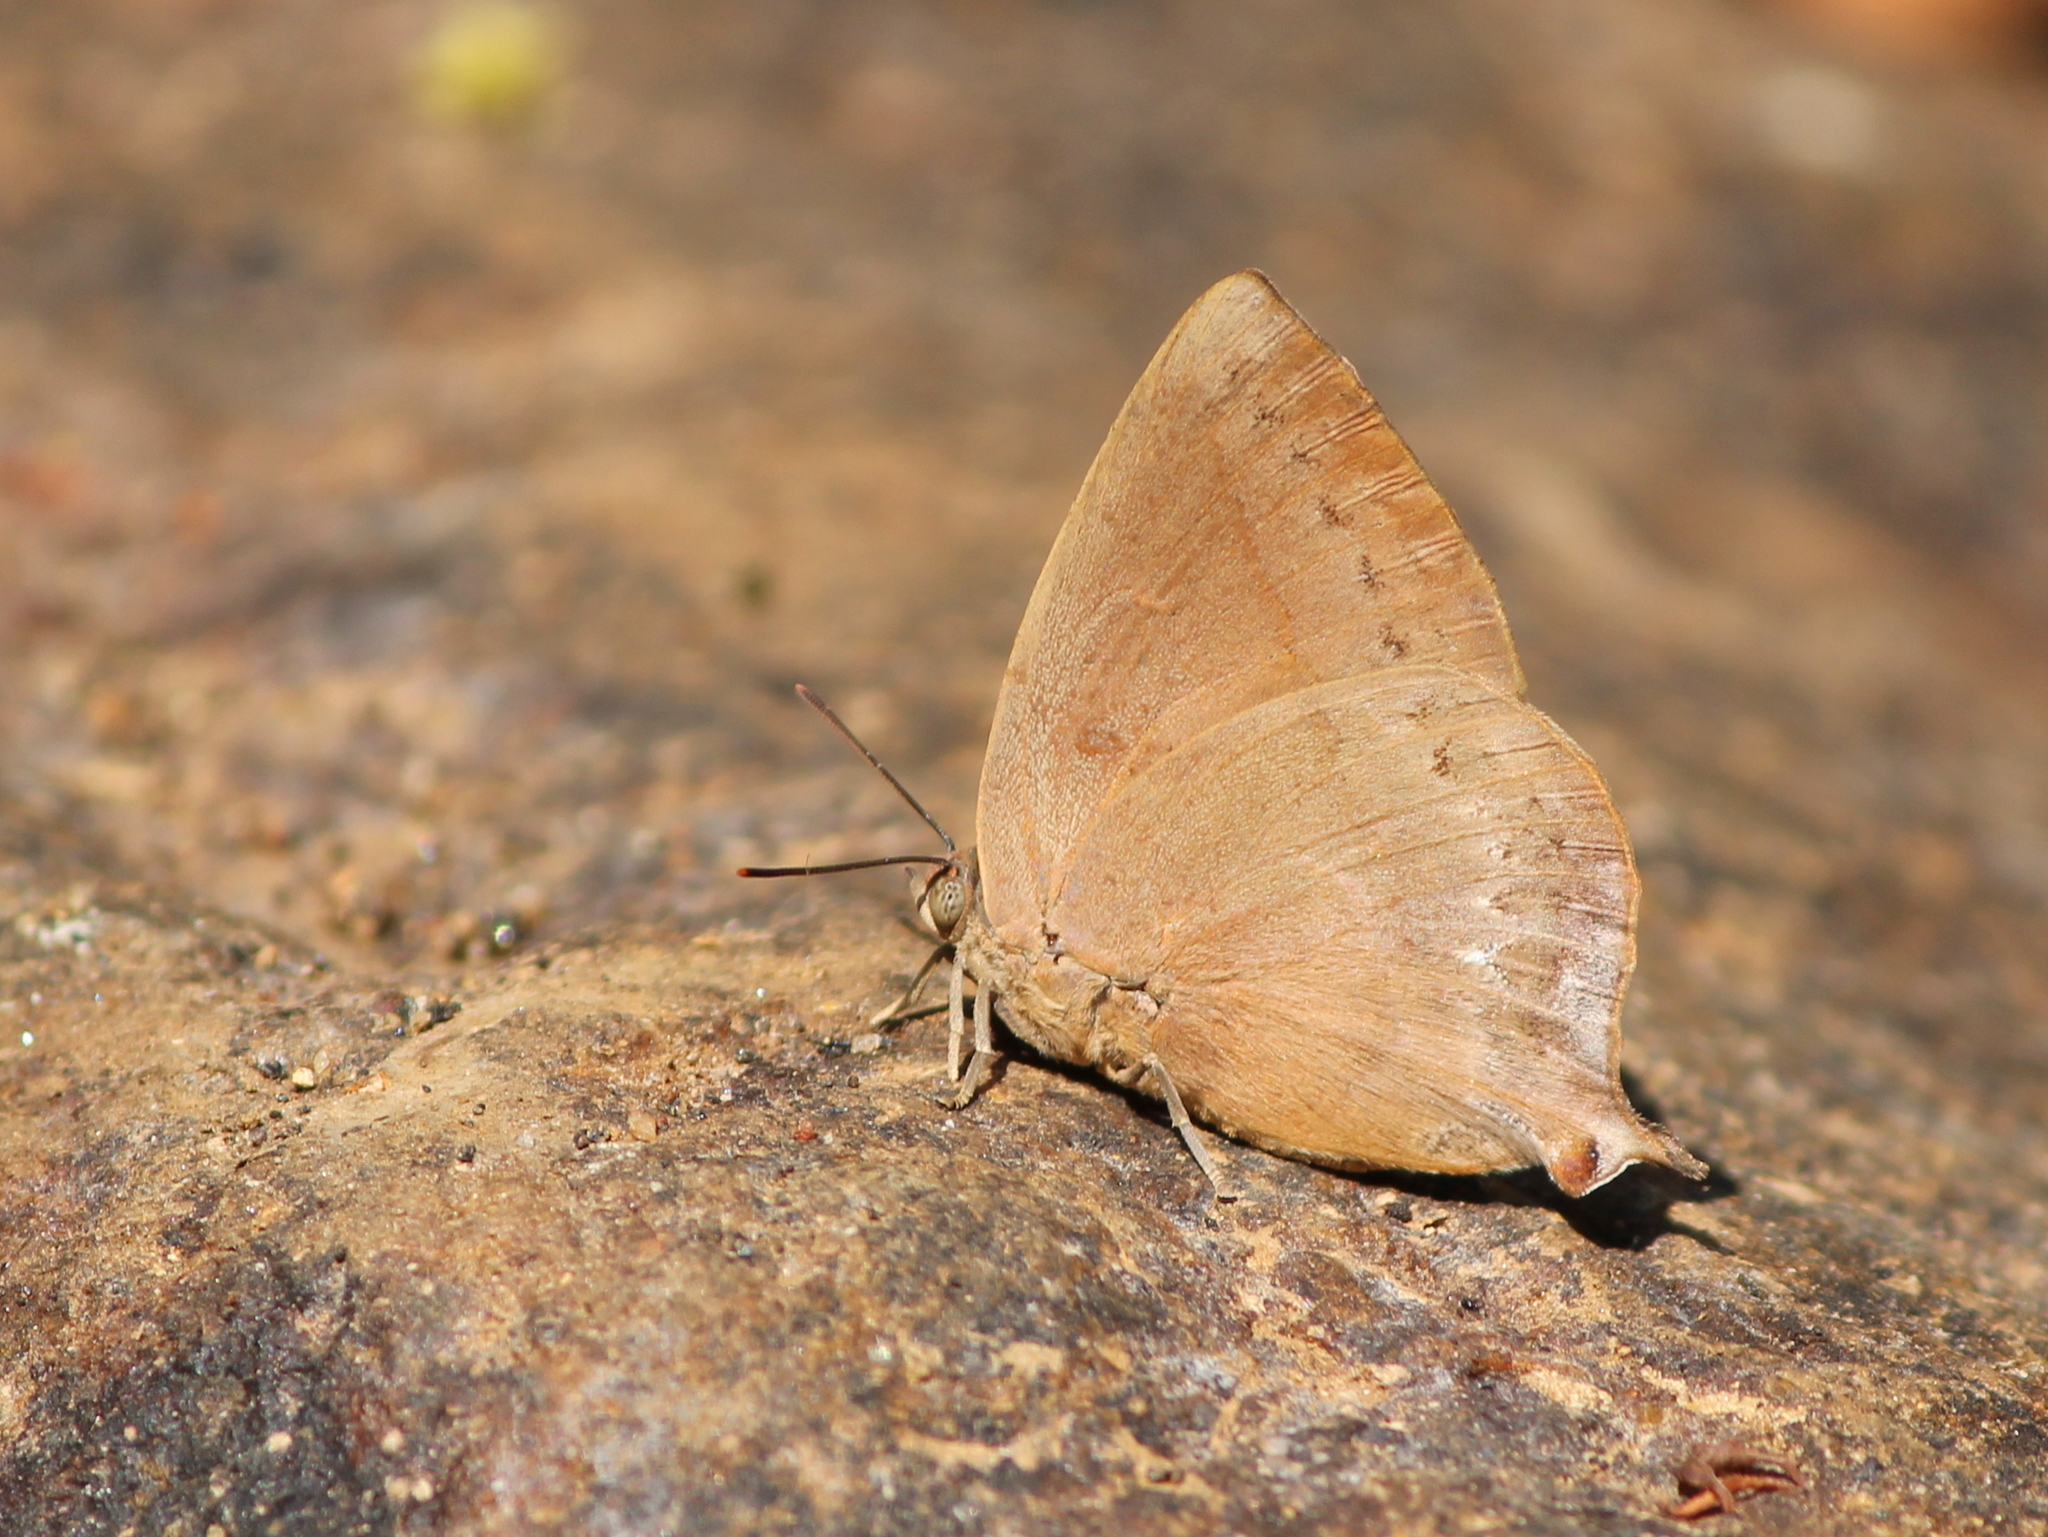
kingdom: Animalia
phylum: Arthropoda
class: Insecta
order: Lepidoptera
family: Lycaenidae
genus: Amblypodia
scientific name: Amblypodia anita
